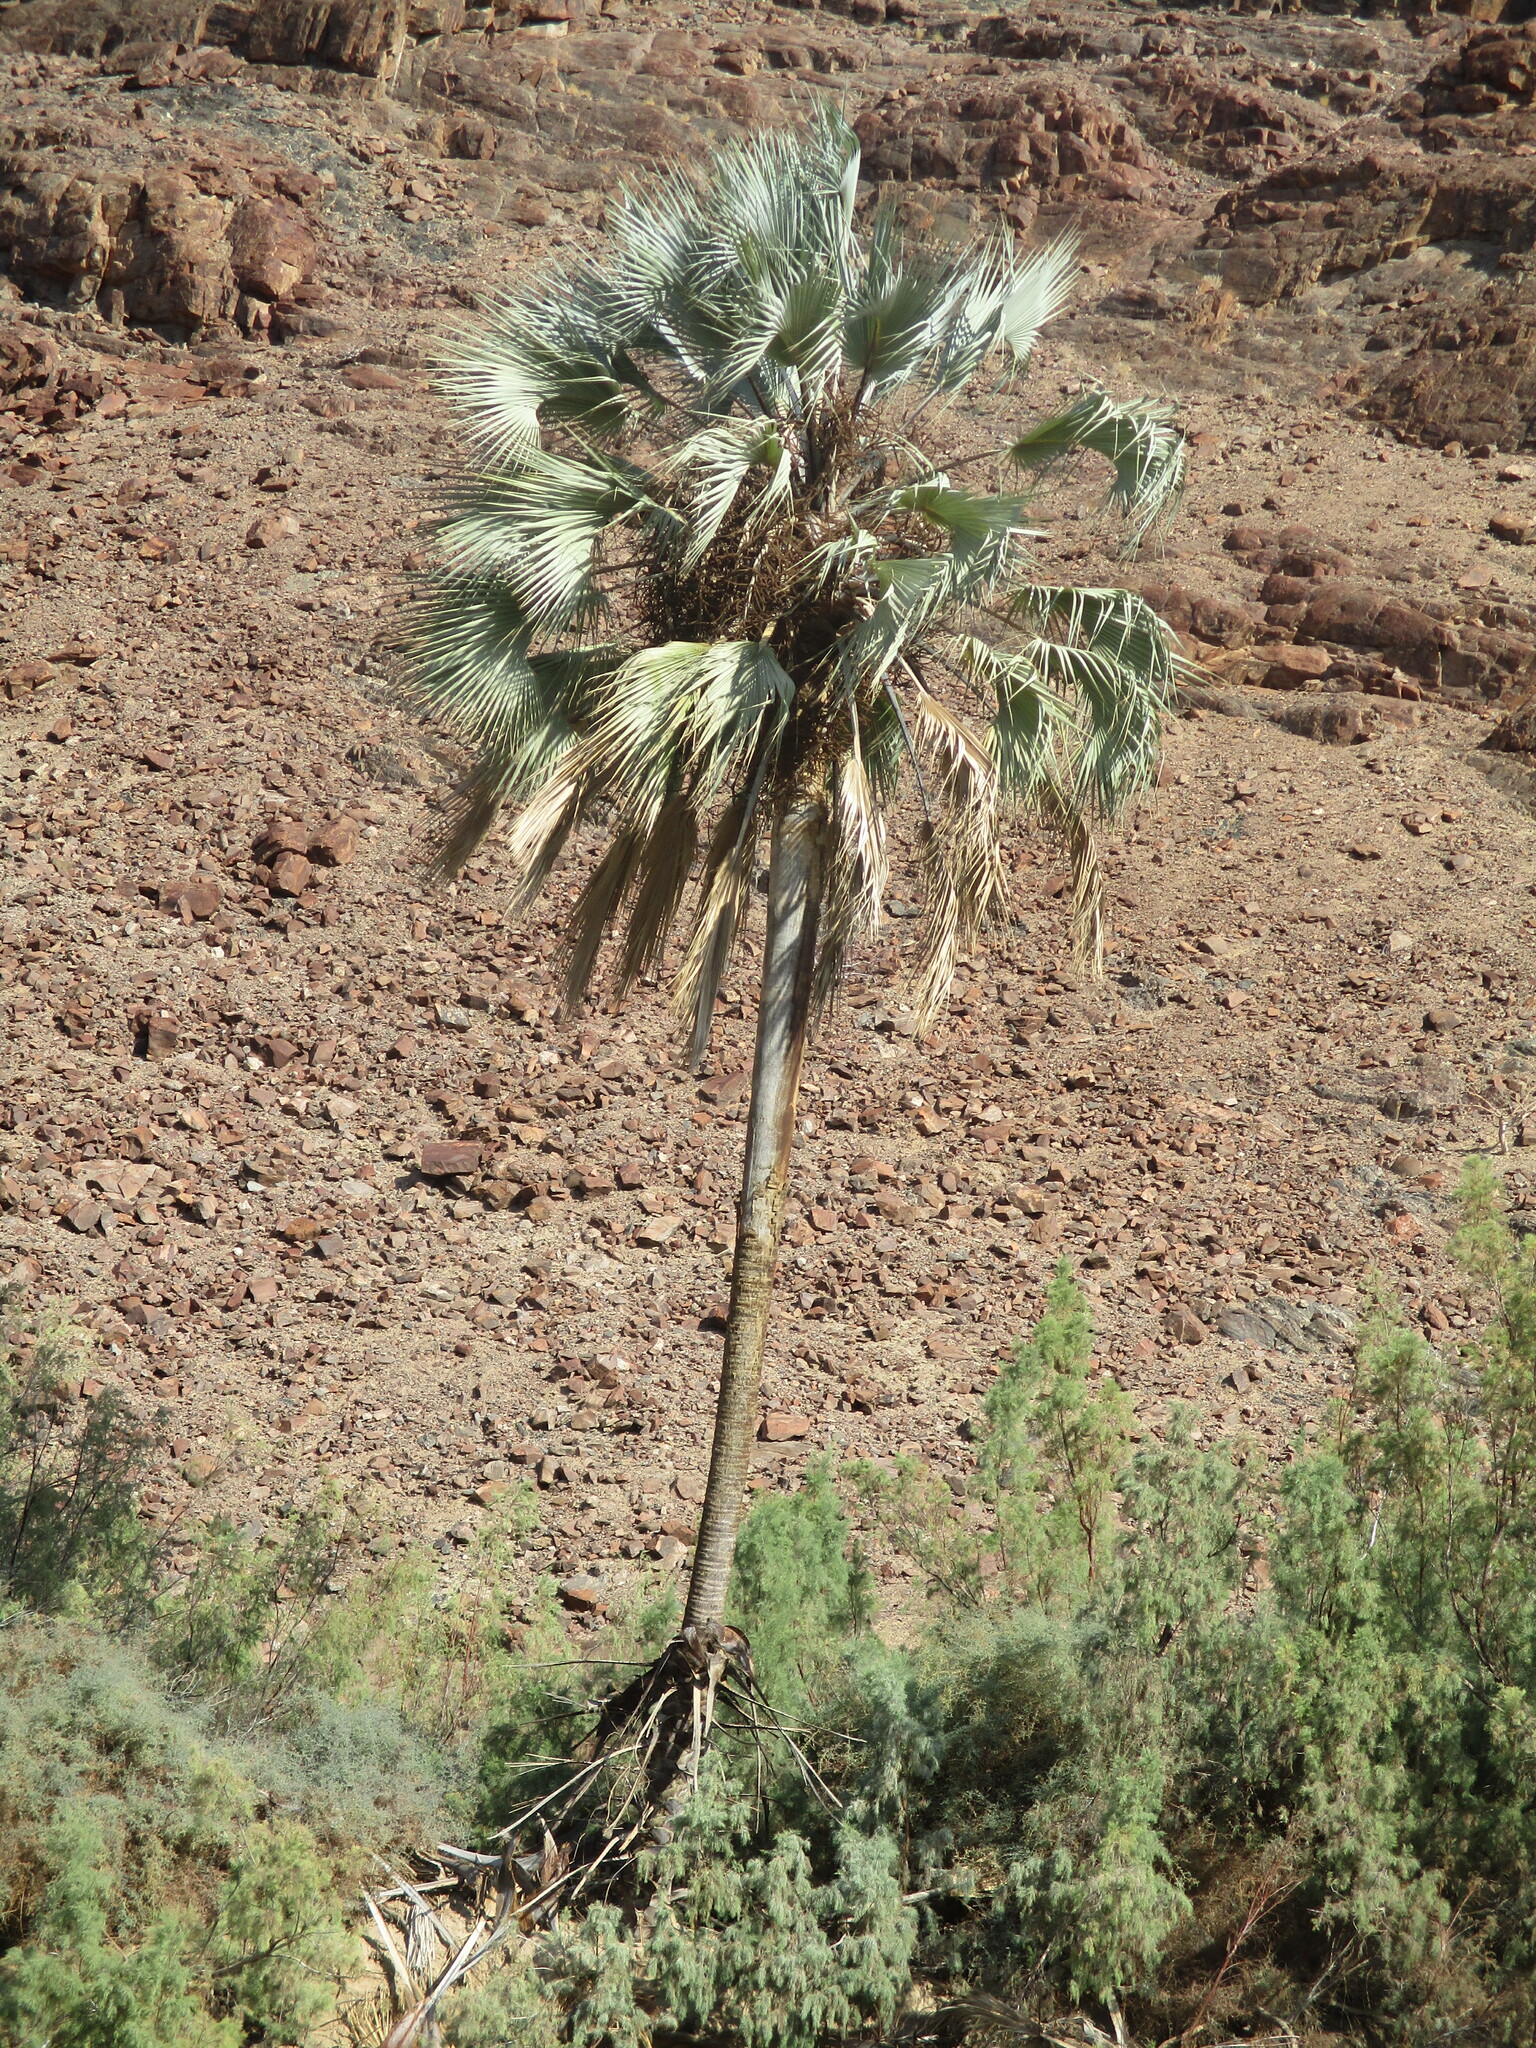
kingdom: Plantae
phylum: Tracheophyta
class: Liliopsida
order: Arecales
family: Arecaceae
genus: Hyphaene
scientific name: Hyphaene petersiana
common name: African ivory nut palm
